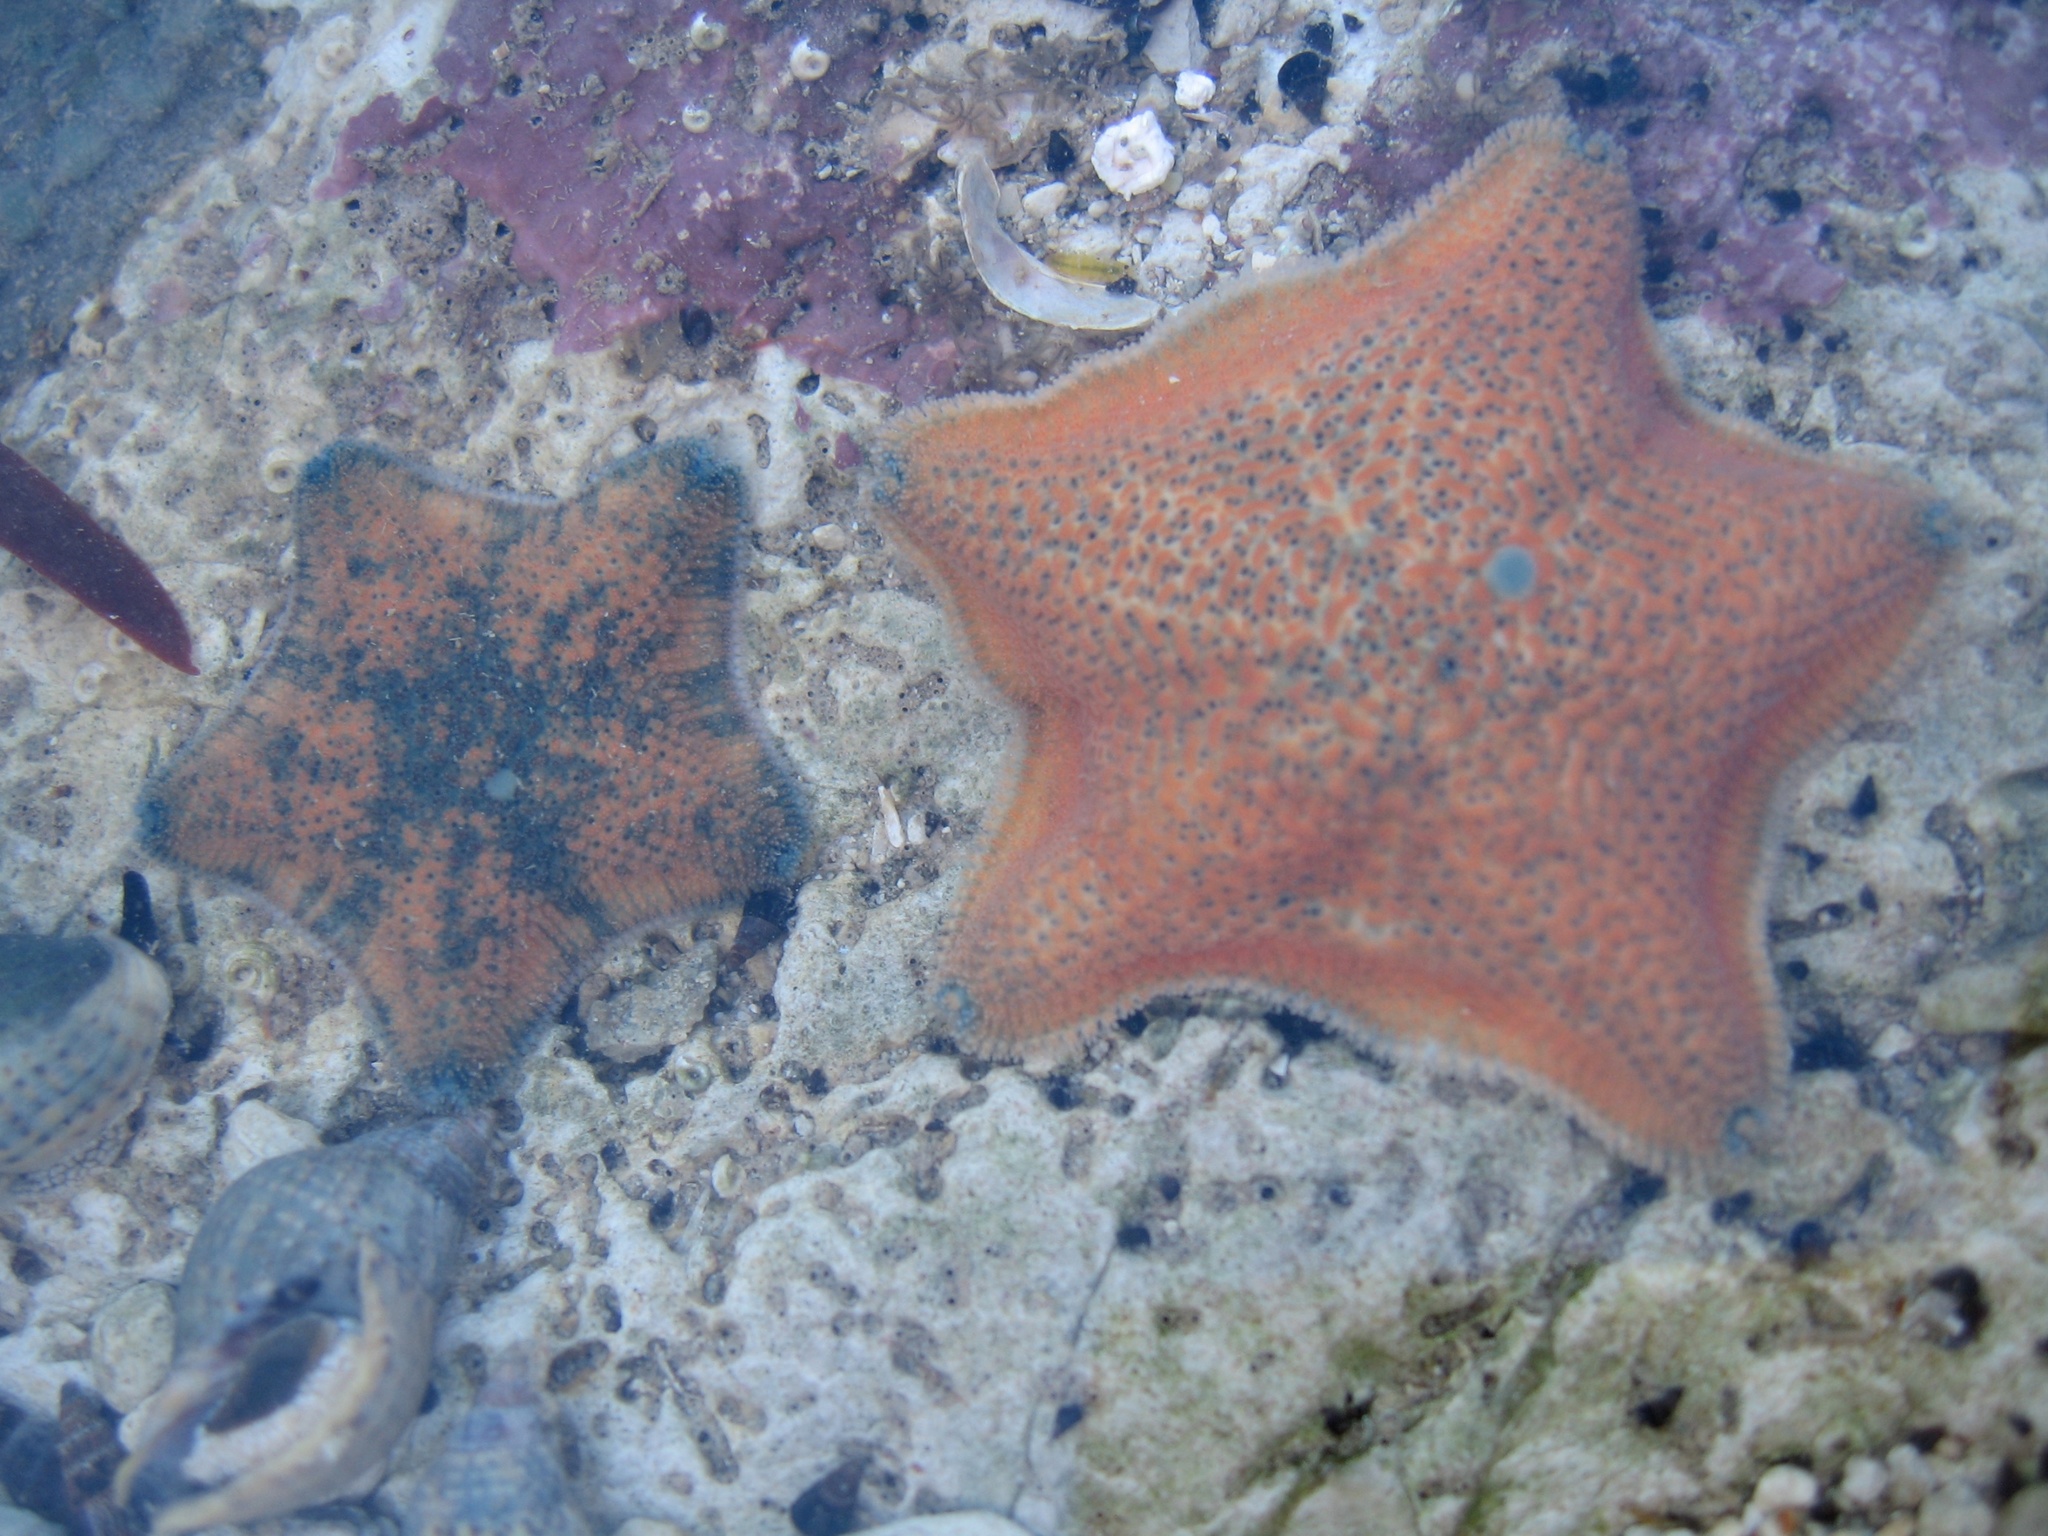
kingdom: Animalia
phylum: Echinodermata
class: Asteroidea
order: Valvatida
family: Asterinidae
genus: Patiriella
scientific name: Patiriella regularis
